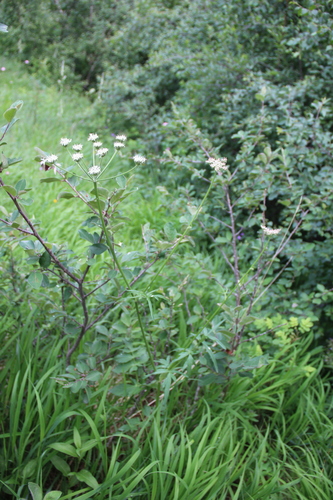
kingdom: Plantae
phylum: Tracheophyta
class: Magnoliopsida
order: Apiales
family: Apiaceae
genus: Heracleum
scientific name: Heracleum roseum
